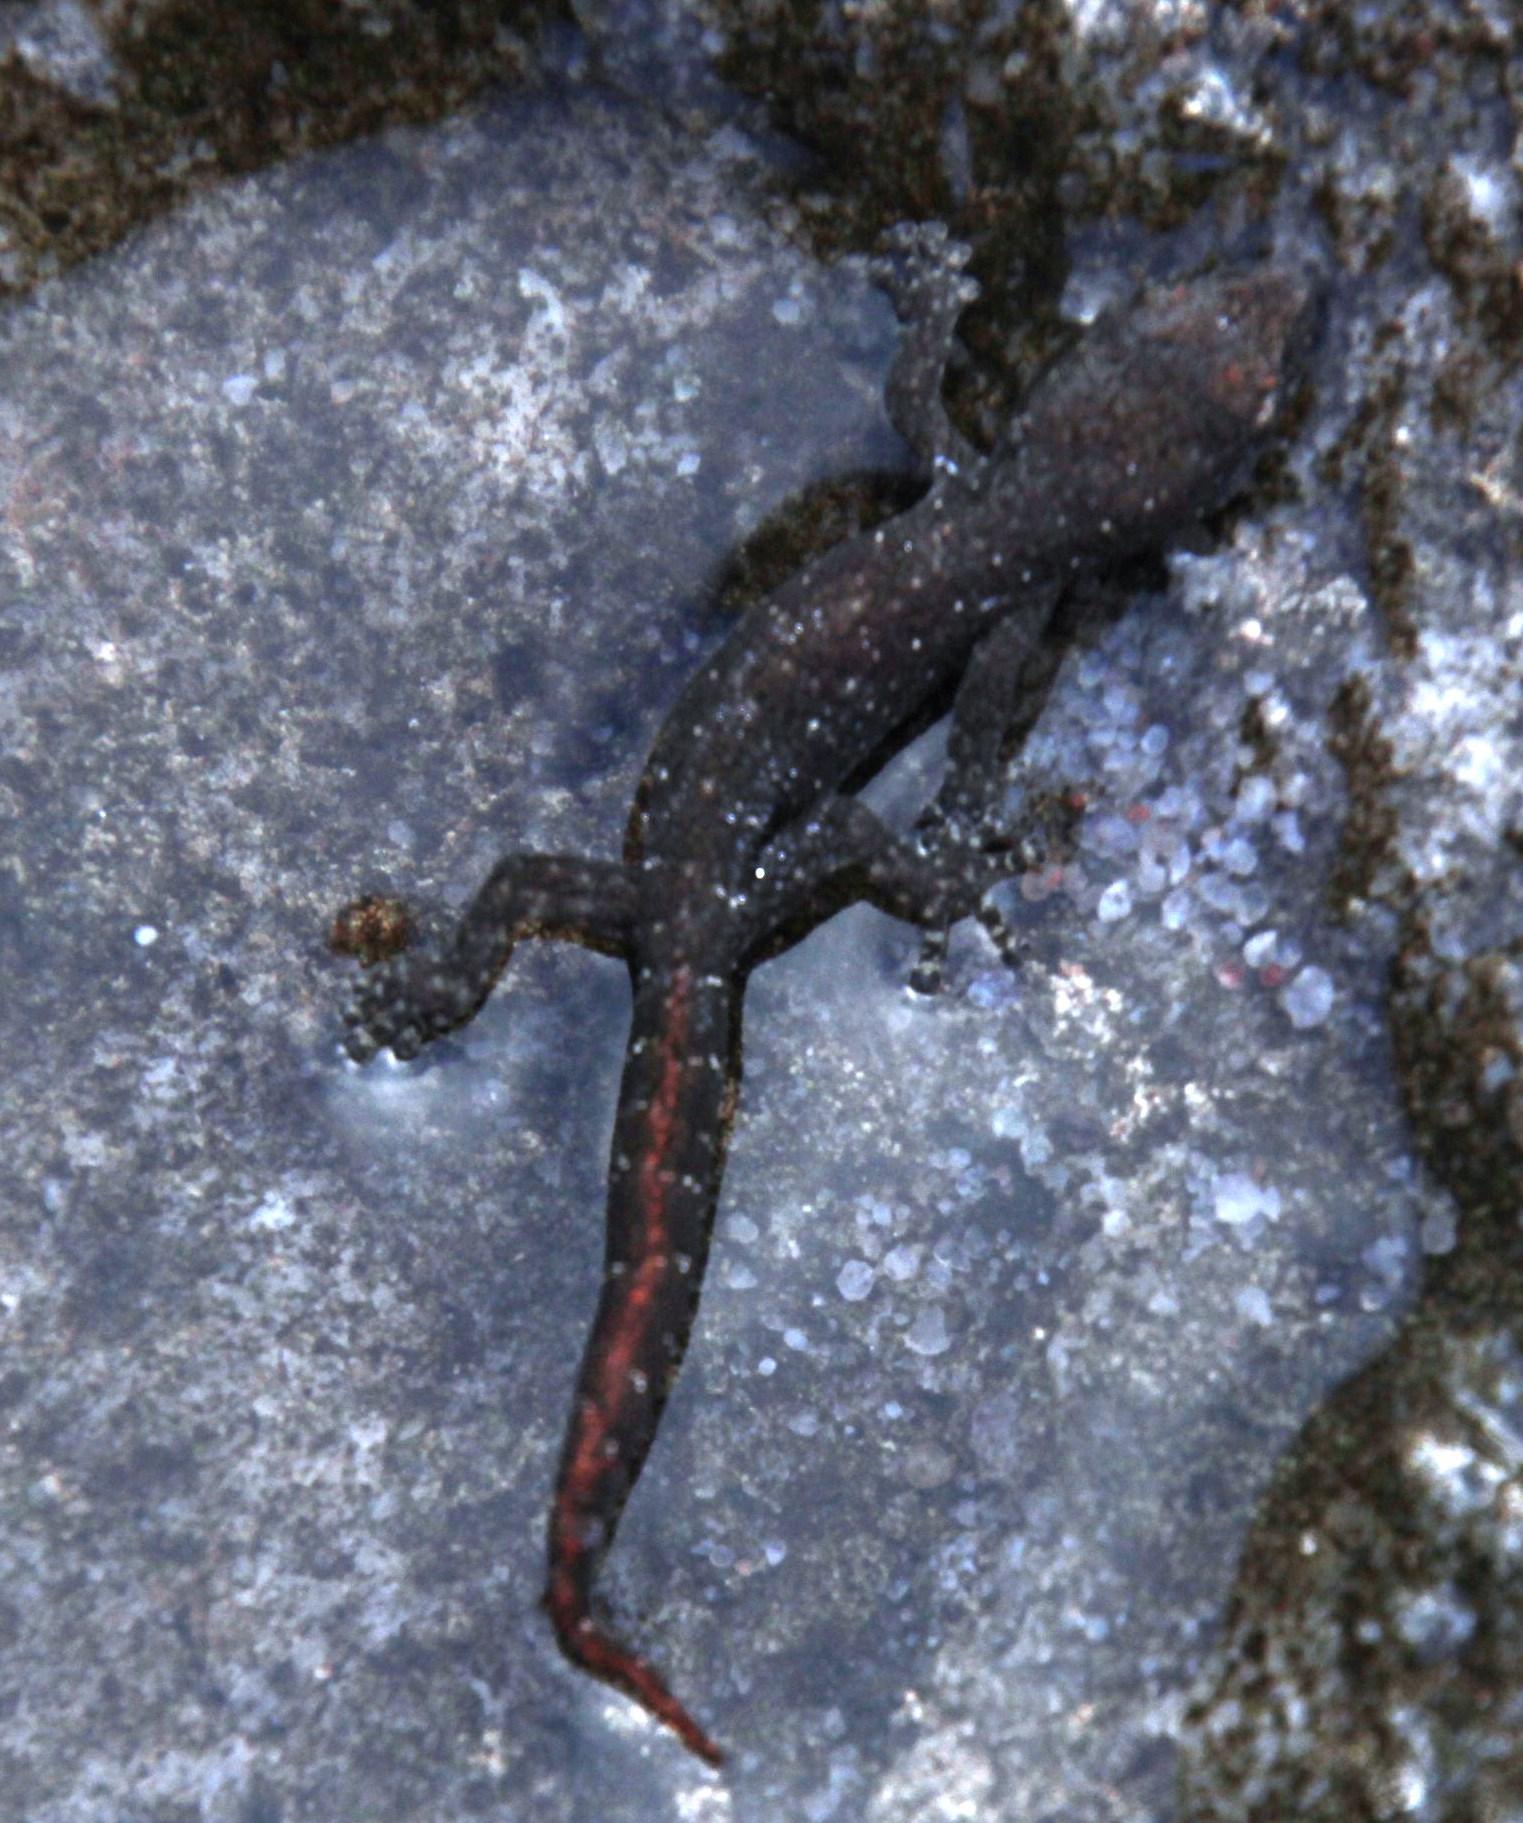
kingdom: Animalia
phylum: Chordata
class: Squamata
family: Gekkonidae
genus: Afrogecko
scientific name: Afrogecko porphyreus
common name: Marbled leaf-toed gecko
